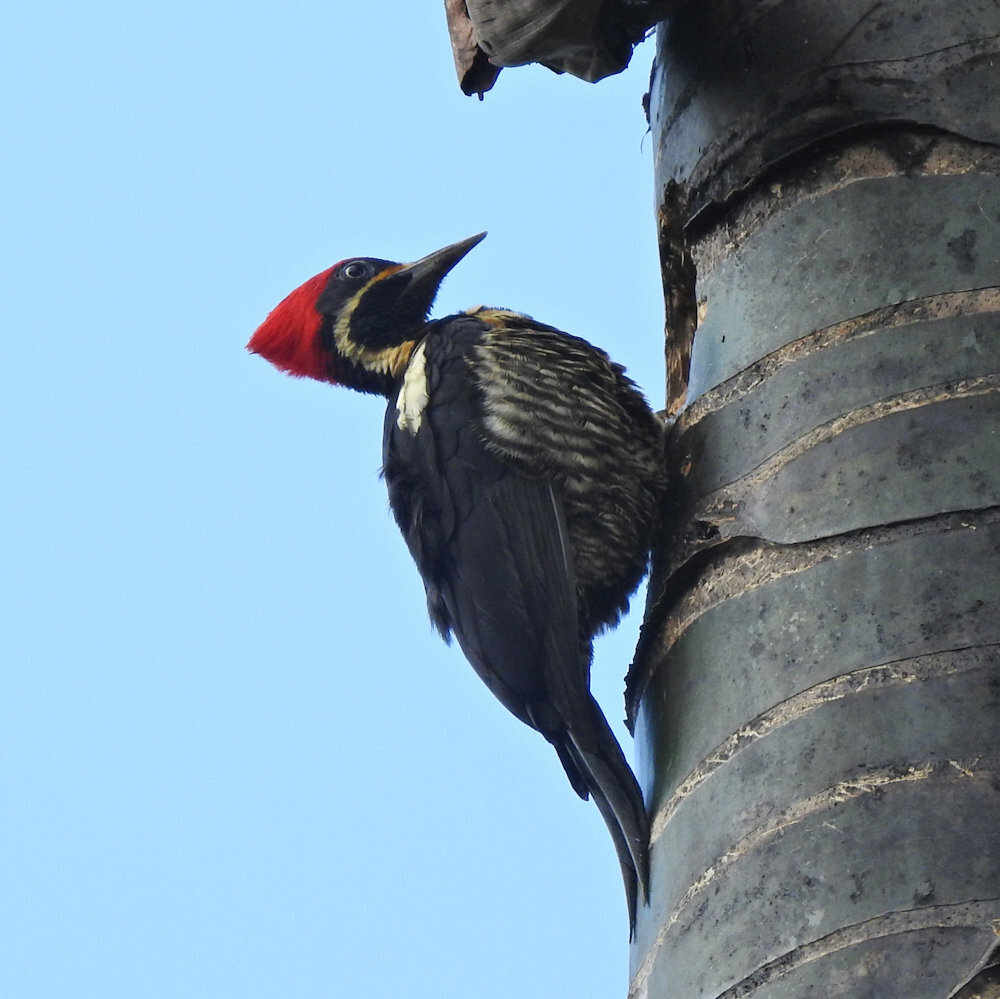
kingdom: Animalia
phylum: Chordata
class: Aves
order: Piciformes
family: Picidae
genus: Dryocopus
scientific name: Dryocopus lineatus
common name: Lineated woodpecker
